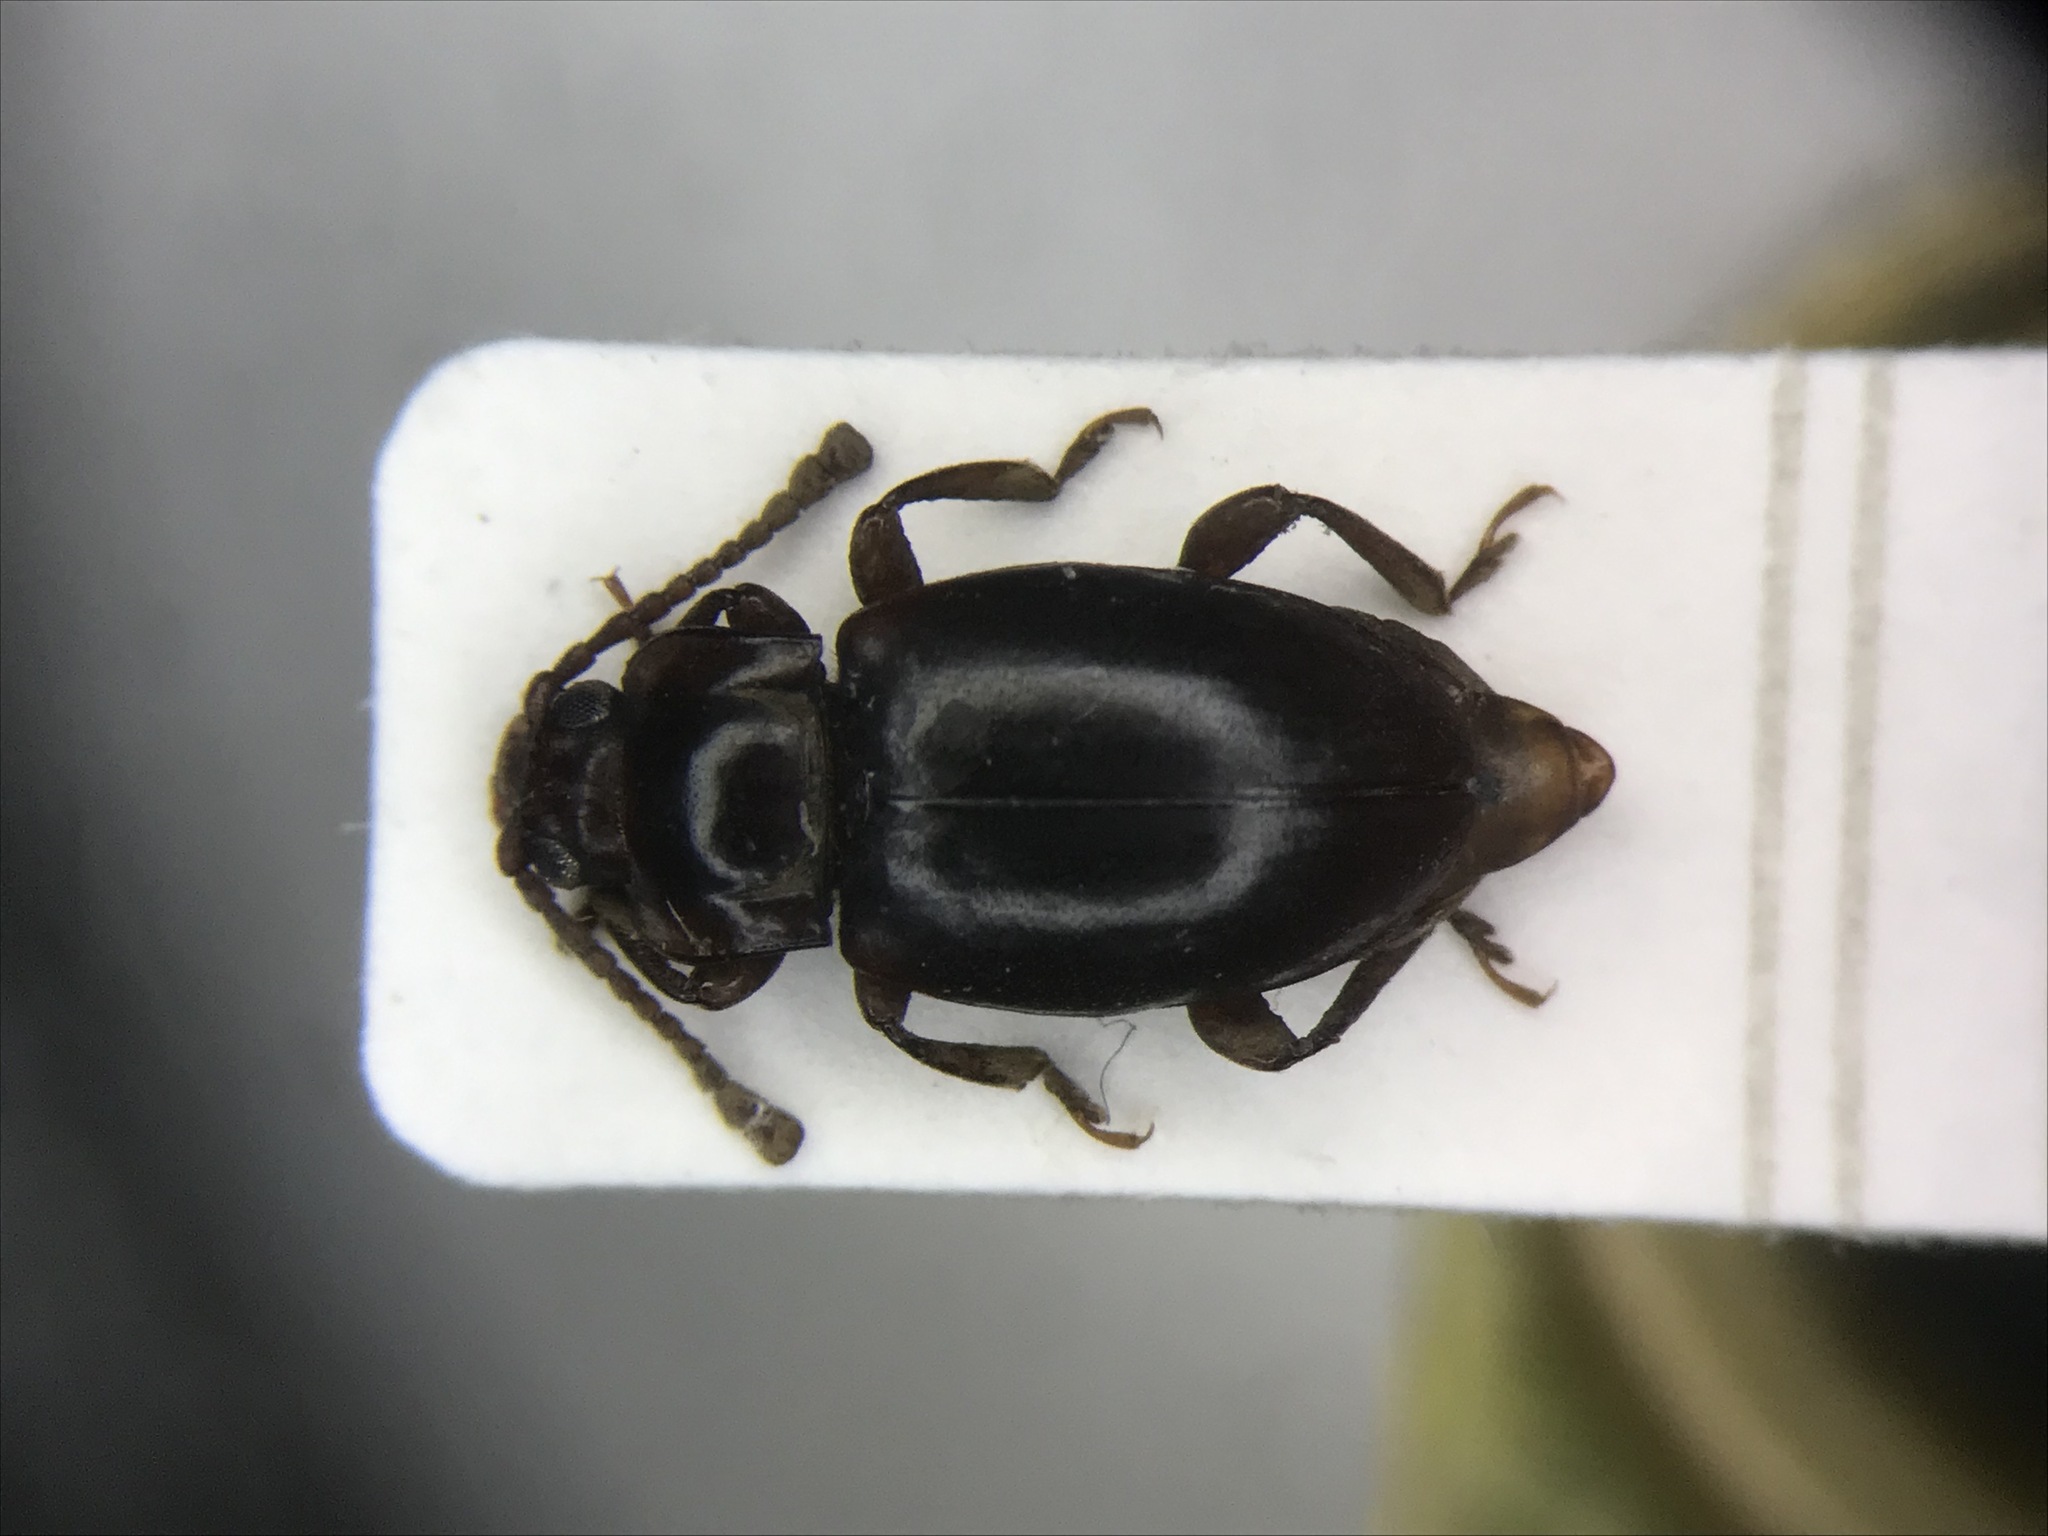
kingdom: Animalia
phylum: Arthropoda
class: Insecta
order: Coleoptera
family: Endomychidae
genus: Lycoperdina
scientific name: Lycoperdina ferruginea
